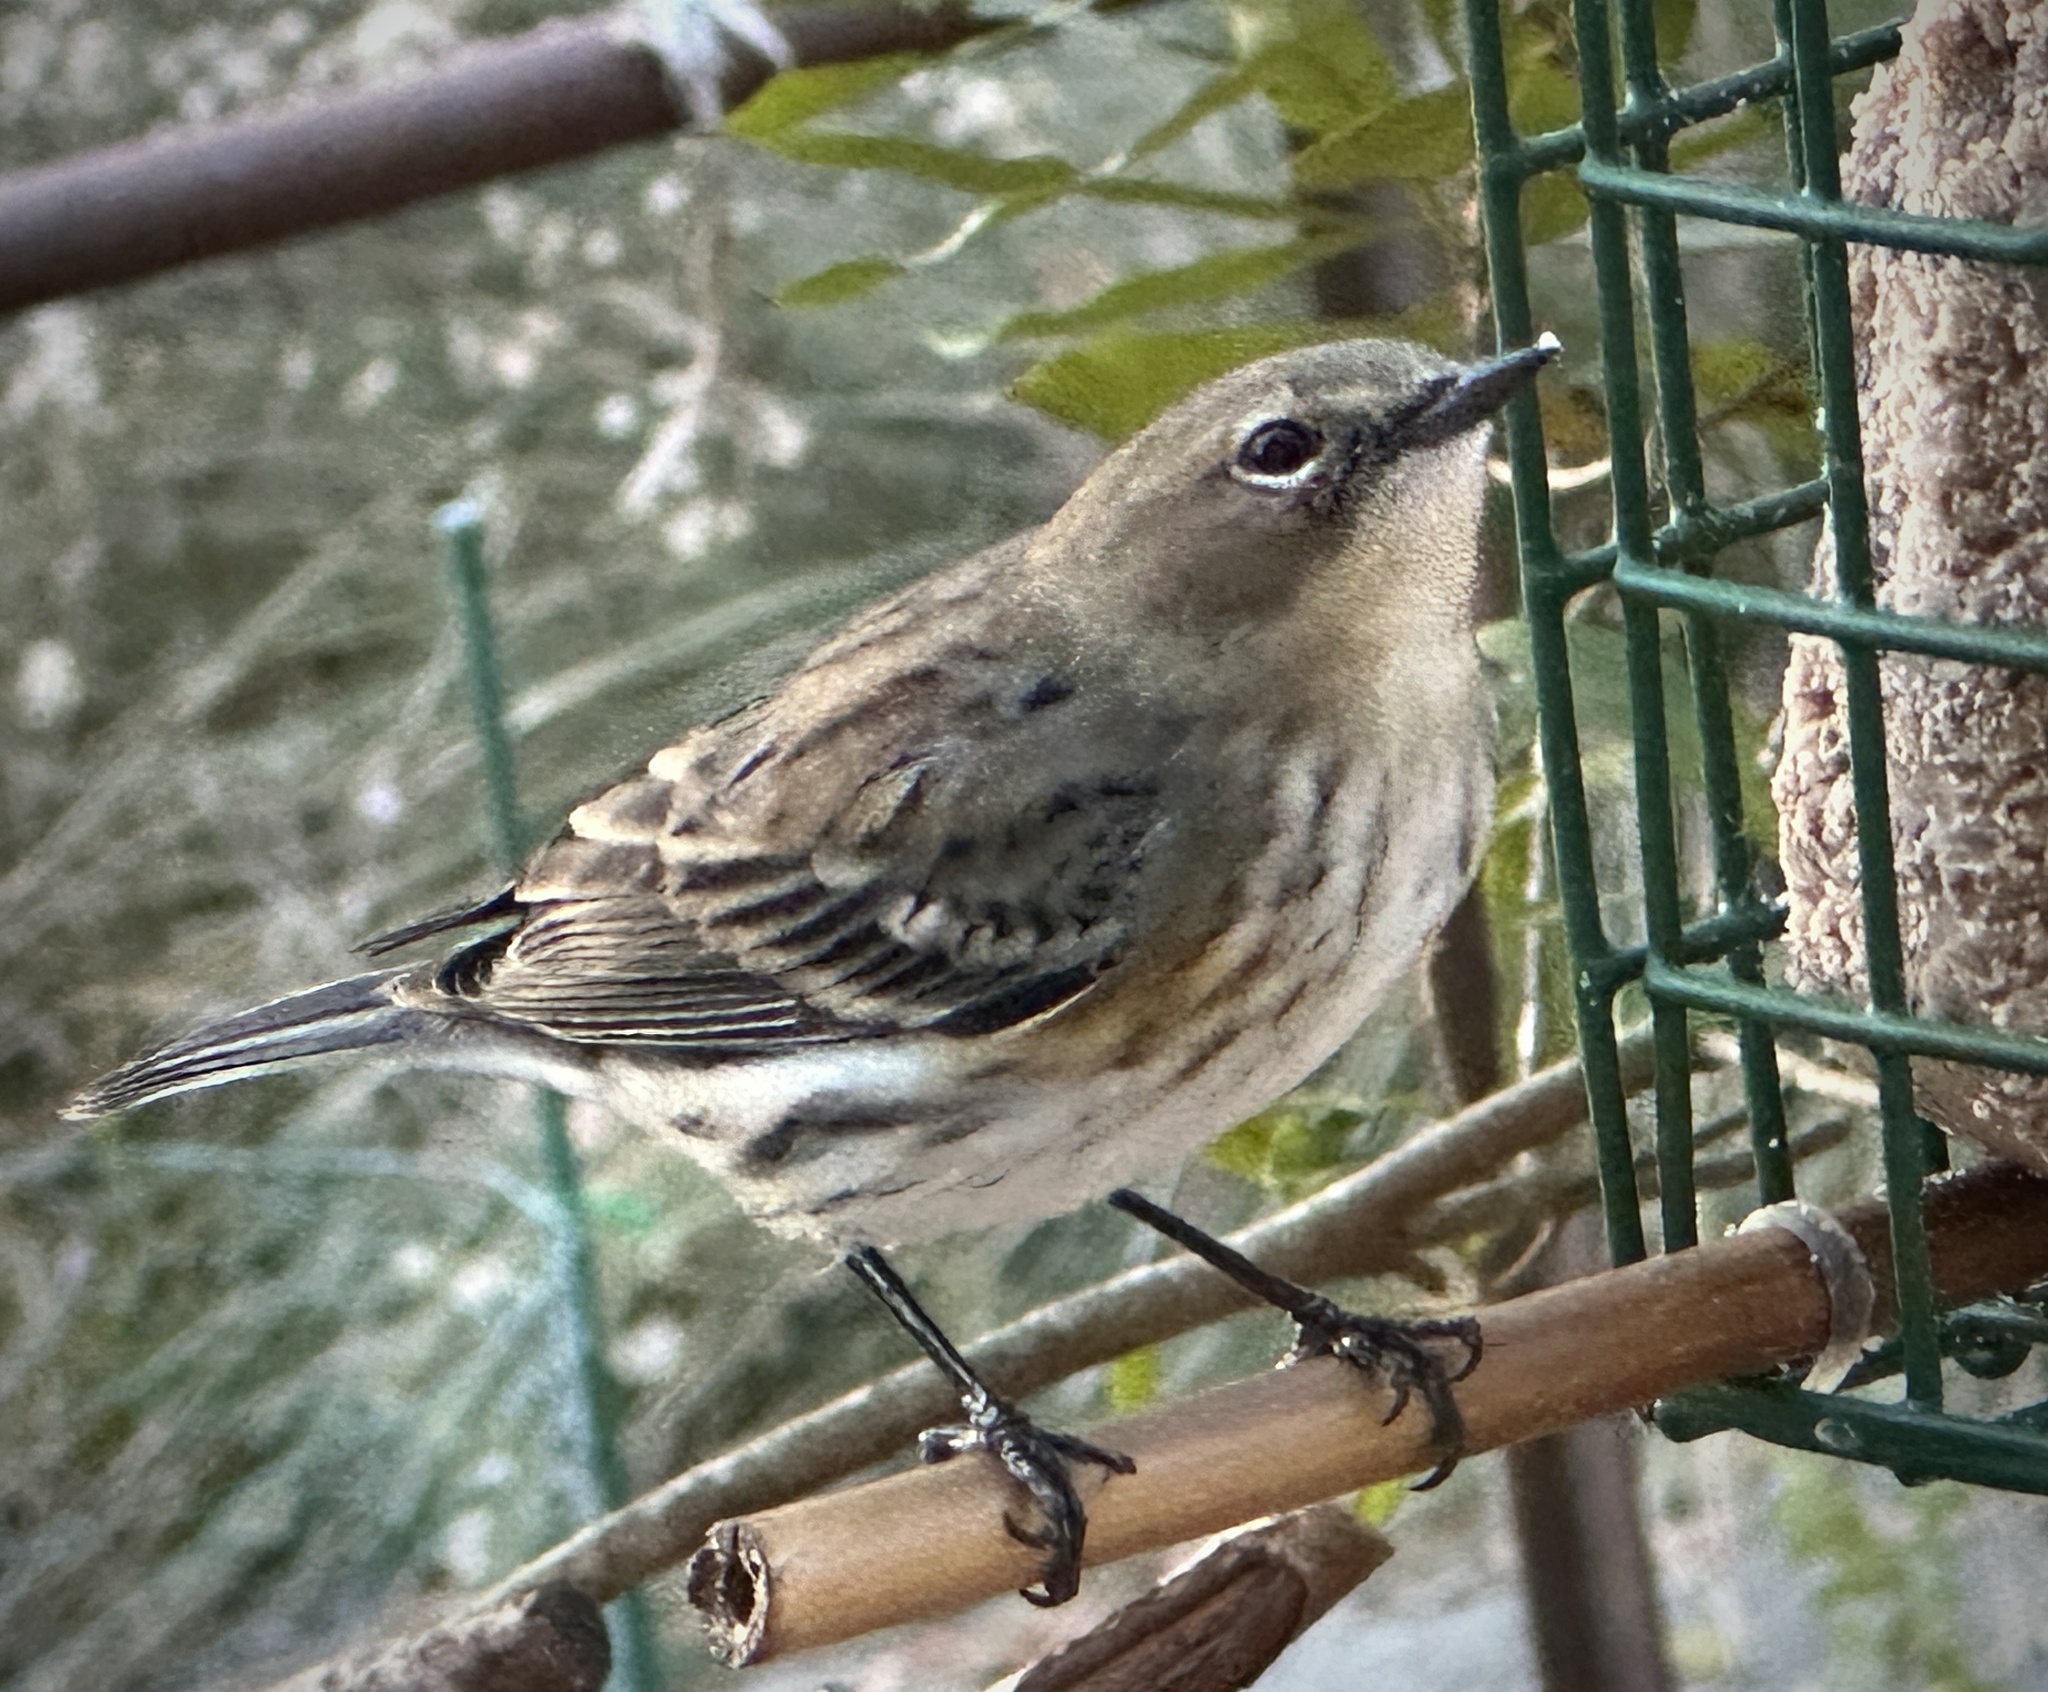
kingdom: Animalia
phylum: Chordata
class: Aves
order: Passeriformes
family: Parulidae
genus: Setophaga
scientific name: Setophaga coronata
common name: Myrtle warbler
